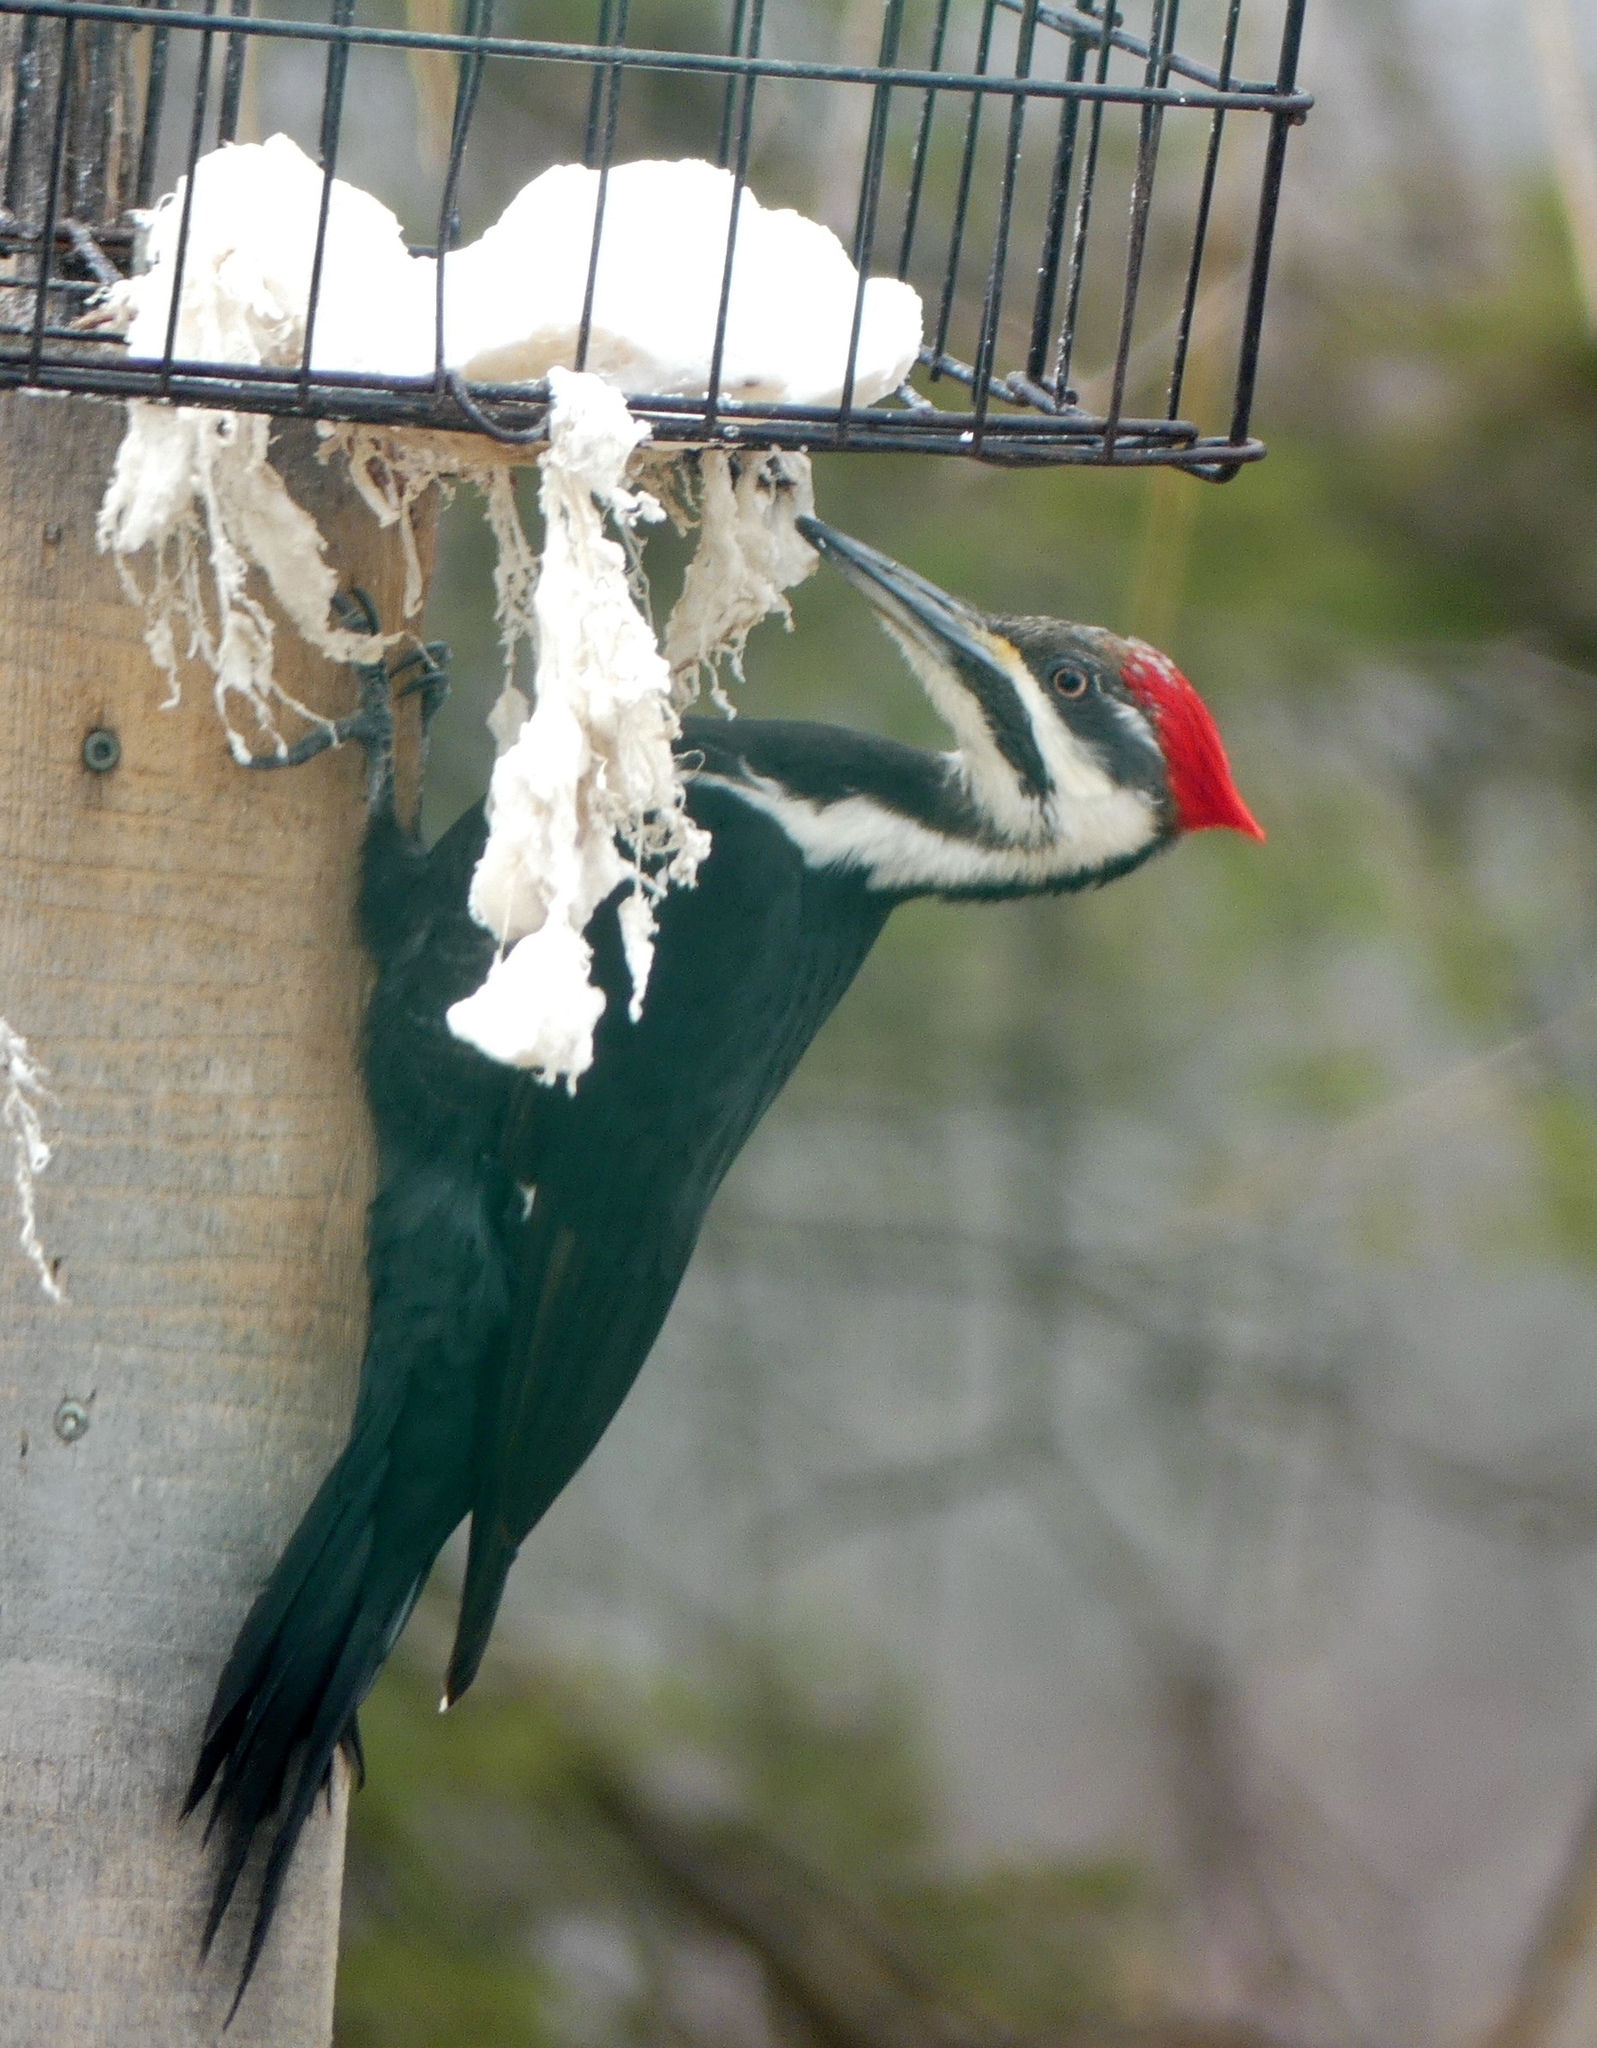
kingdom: Animalia
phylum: Chordata
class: Aves
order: Piciformes
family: Picidae
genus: Dryocopus
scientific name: Dryocopus pileatus
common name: Pileated woodpecker
